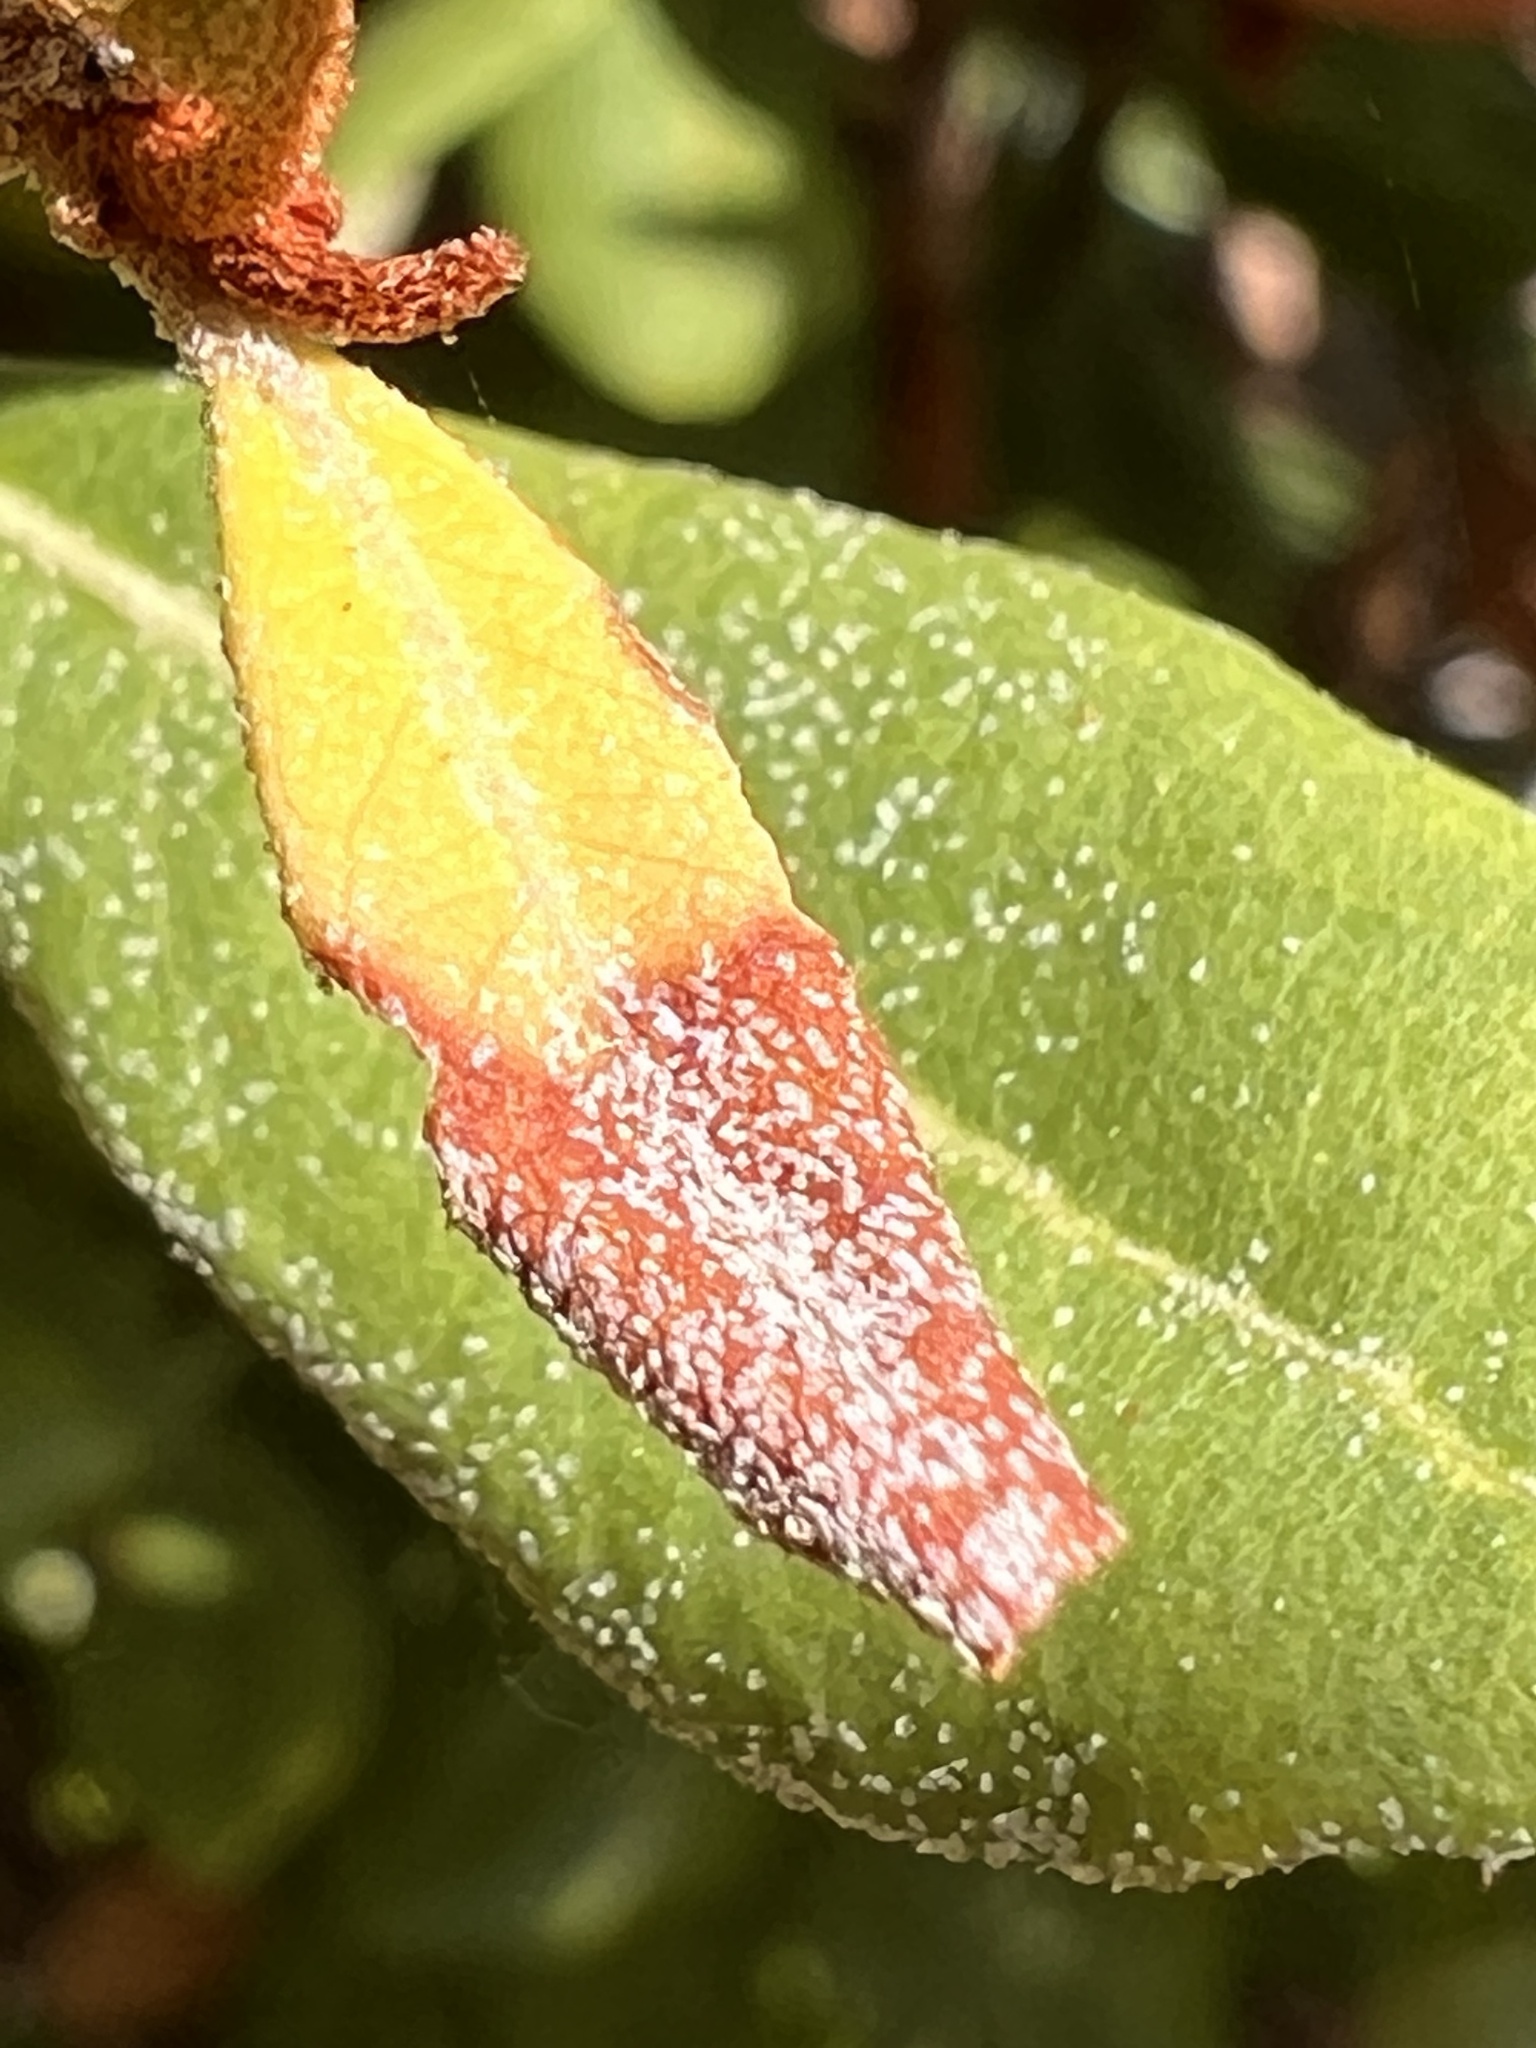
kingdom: Fungi
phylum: Basidiomycota
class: Exobasidiomycetes
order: Exobasidiales
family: Exobasidiaceae
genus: Exobasidium
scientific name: Exobasidium ferrugineae
